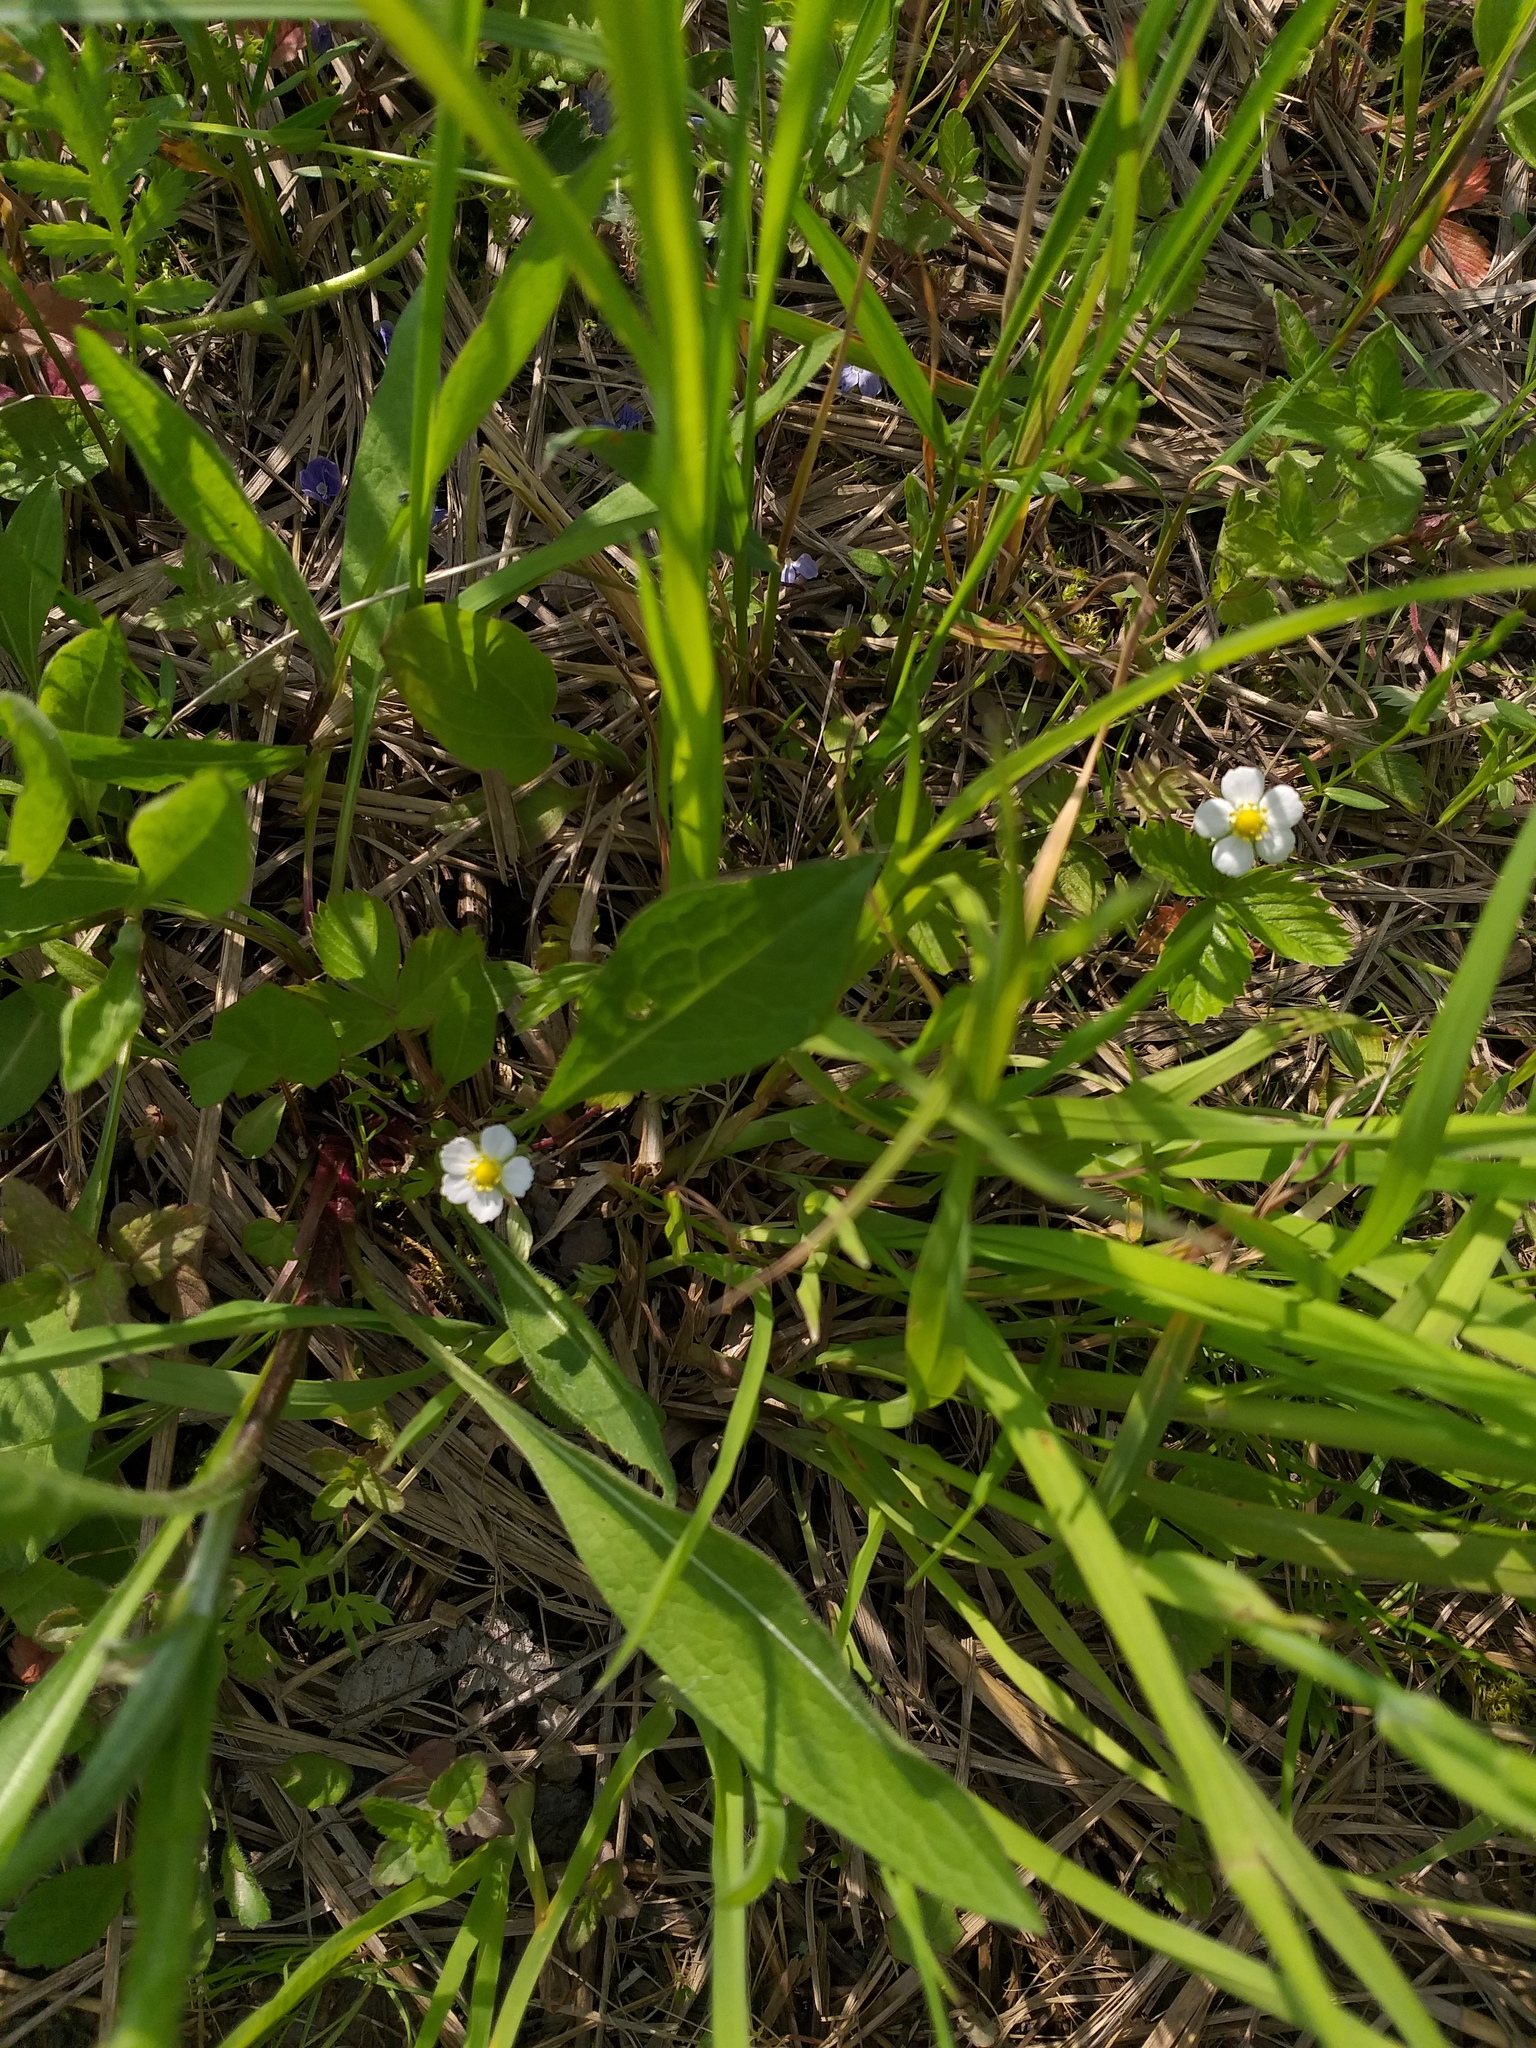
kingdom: Plantae
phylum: Tracheophyta
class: Magnoliopsida
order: Rosales
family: Rosaceae
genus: Fragaria
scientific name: Fragaria vesca
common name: Wild strawberry
